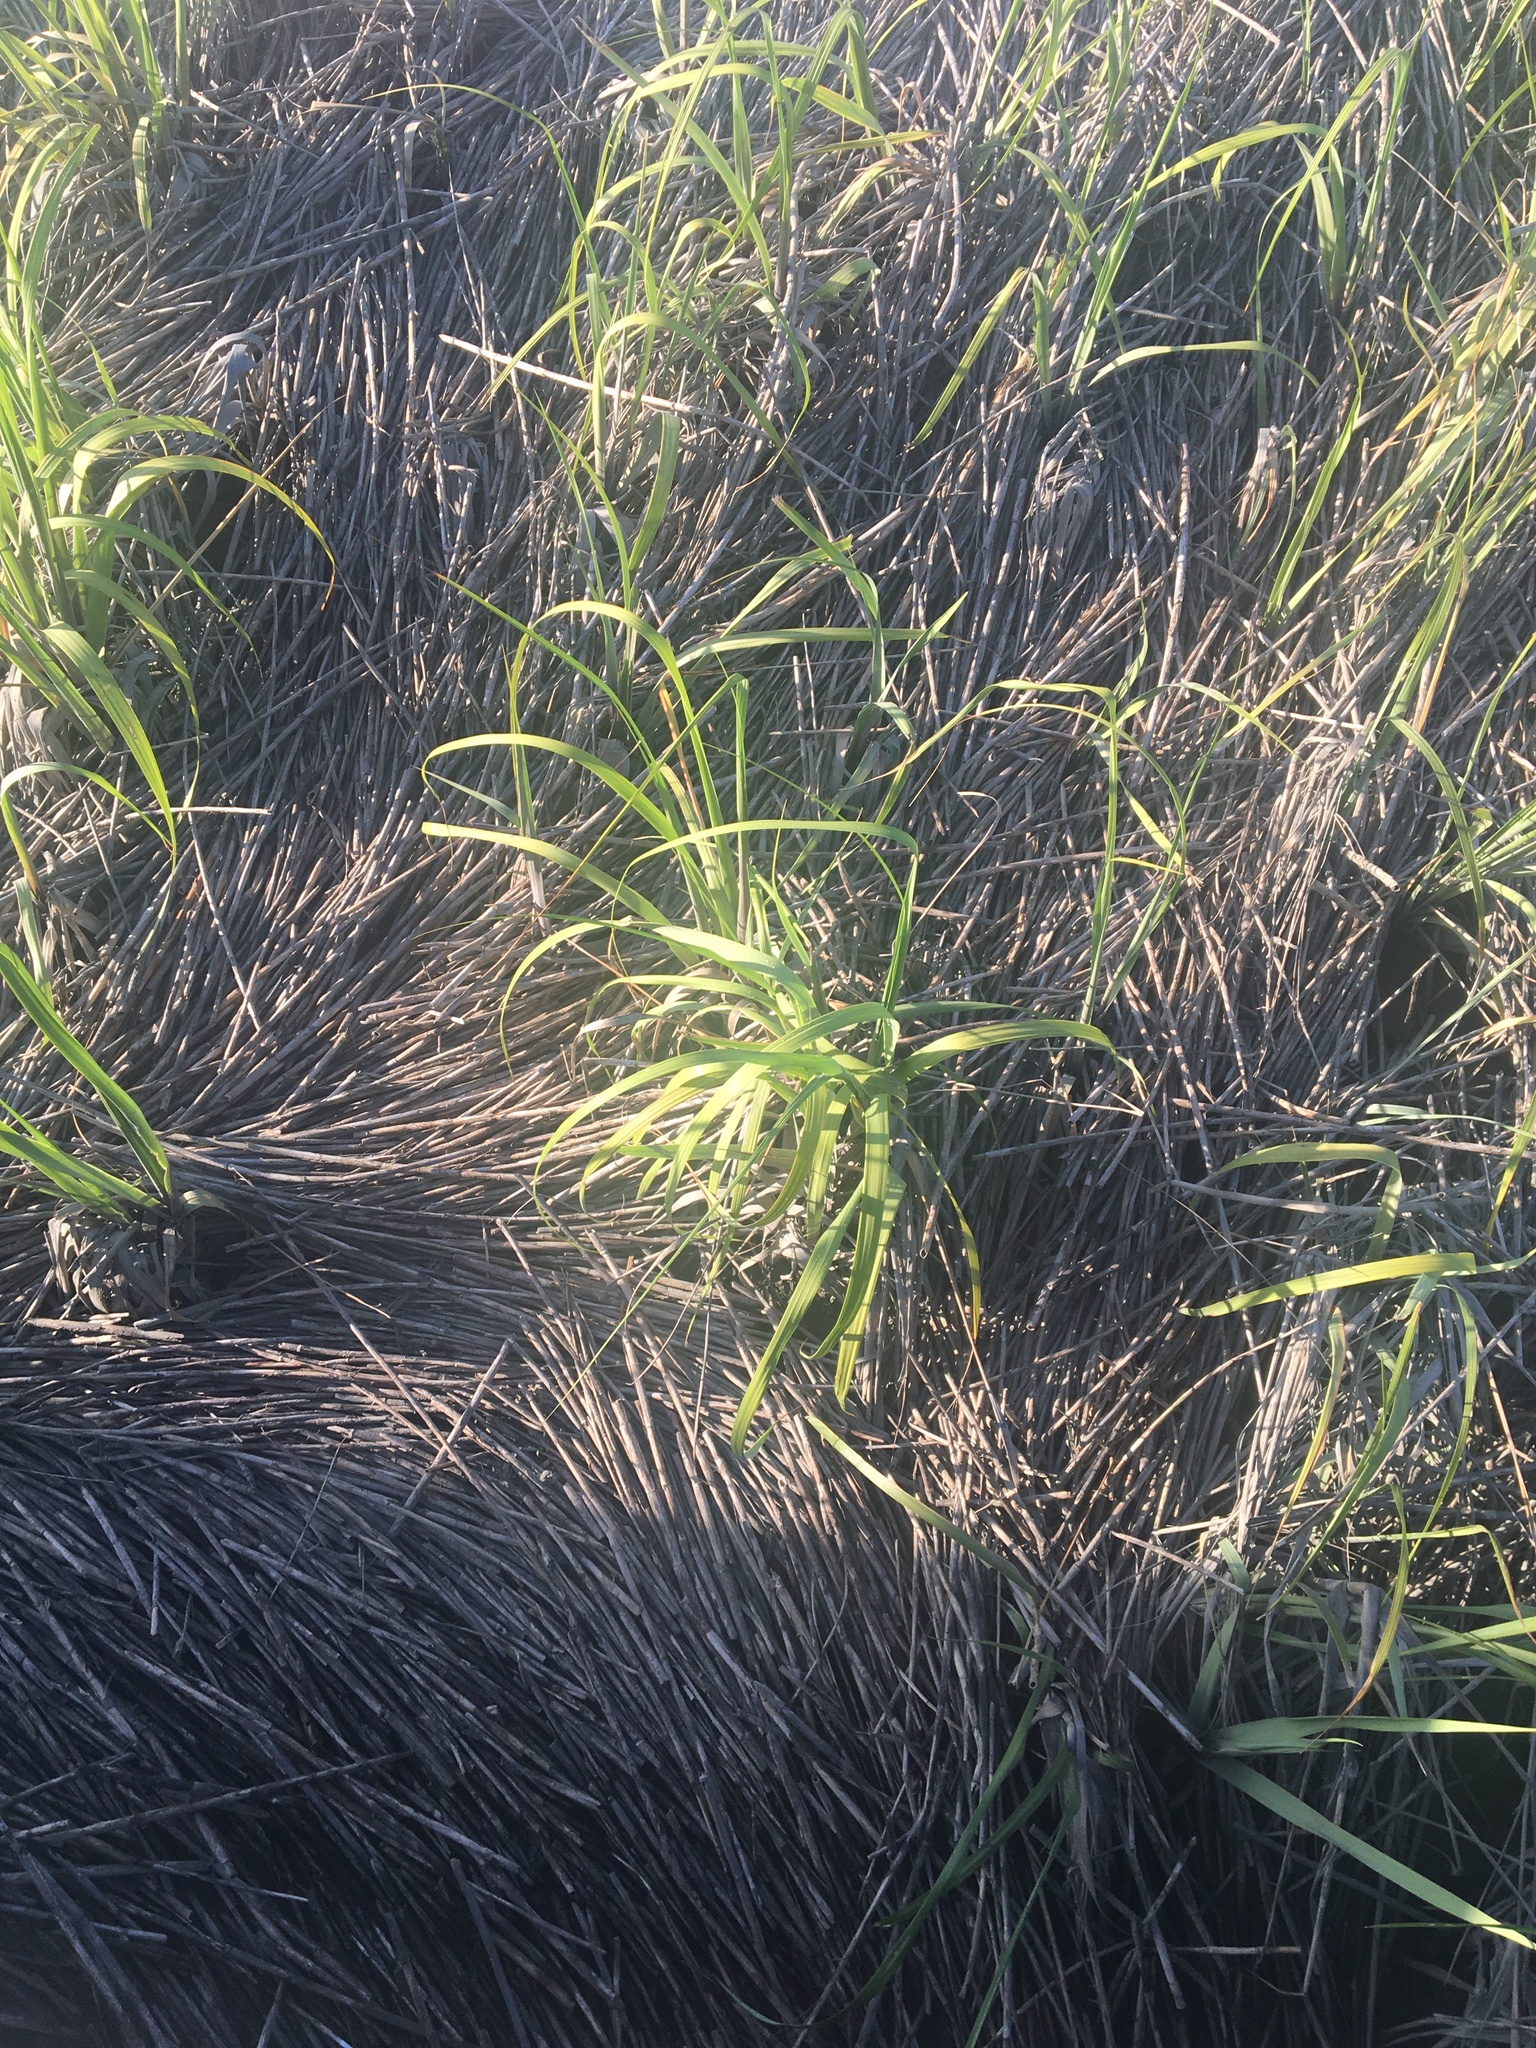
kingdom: Plantae
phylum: Tracheophyta
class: Liliopsida
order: Poales
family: Poaceae
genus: Sporobolus
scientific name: Sporobolus alterniflorus
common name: Atlantic cordgrass
